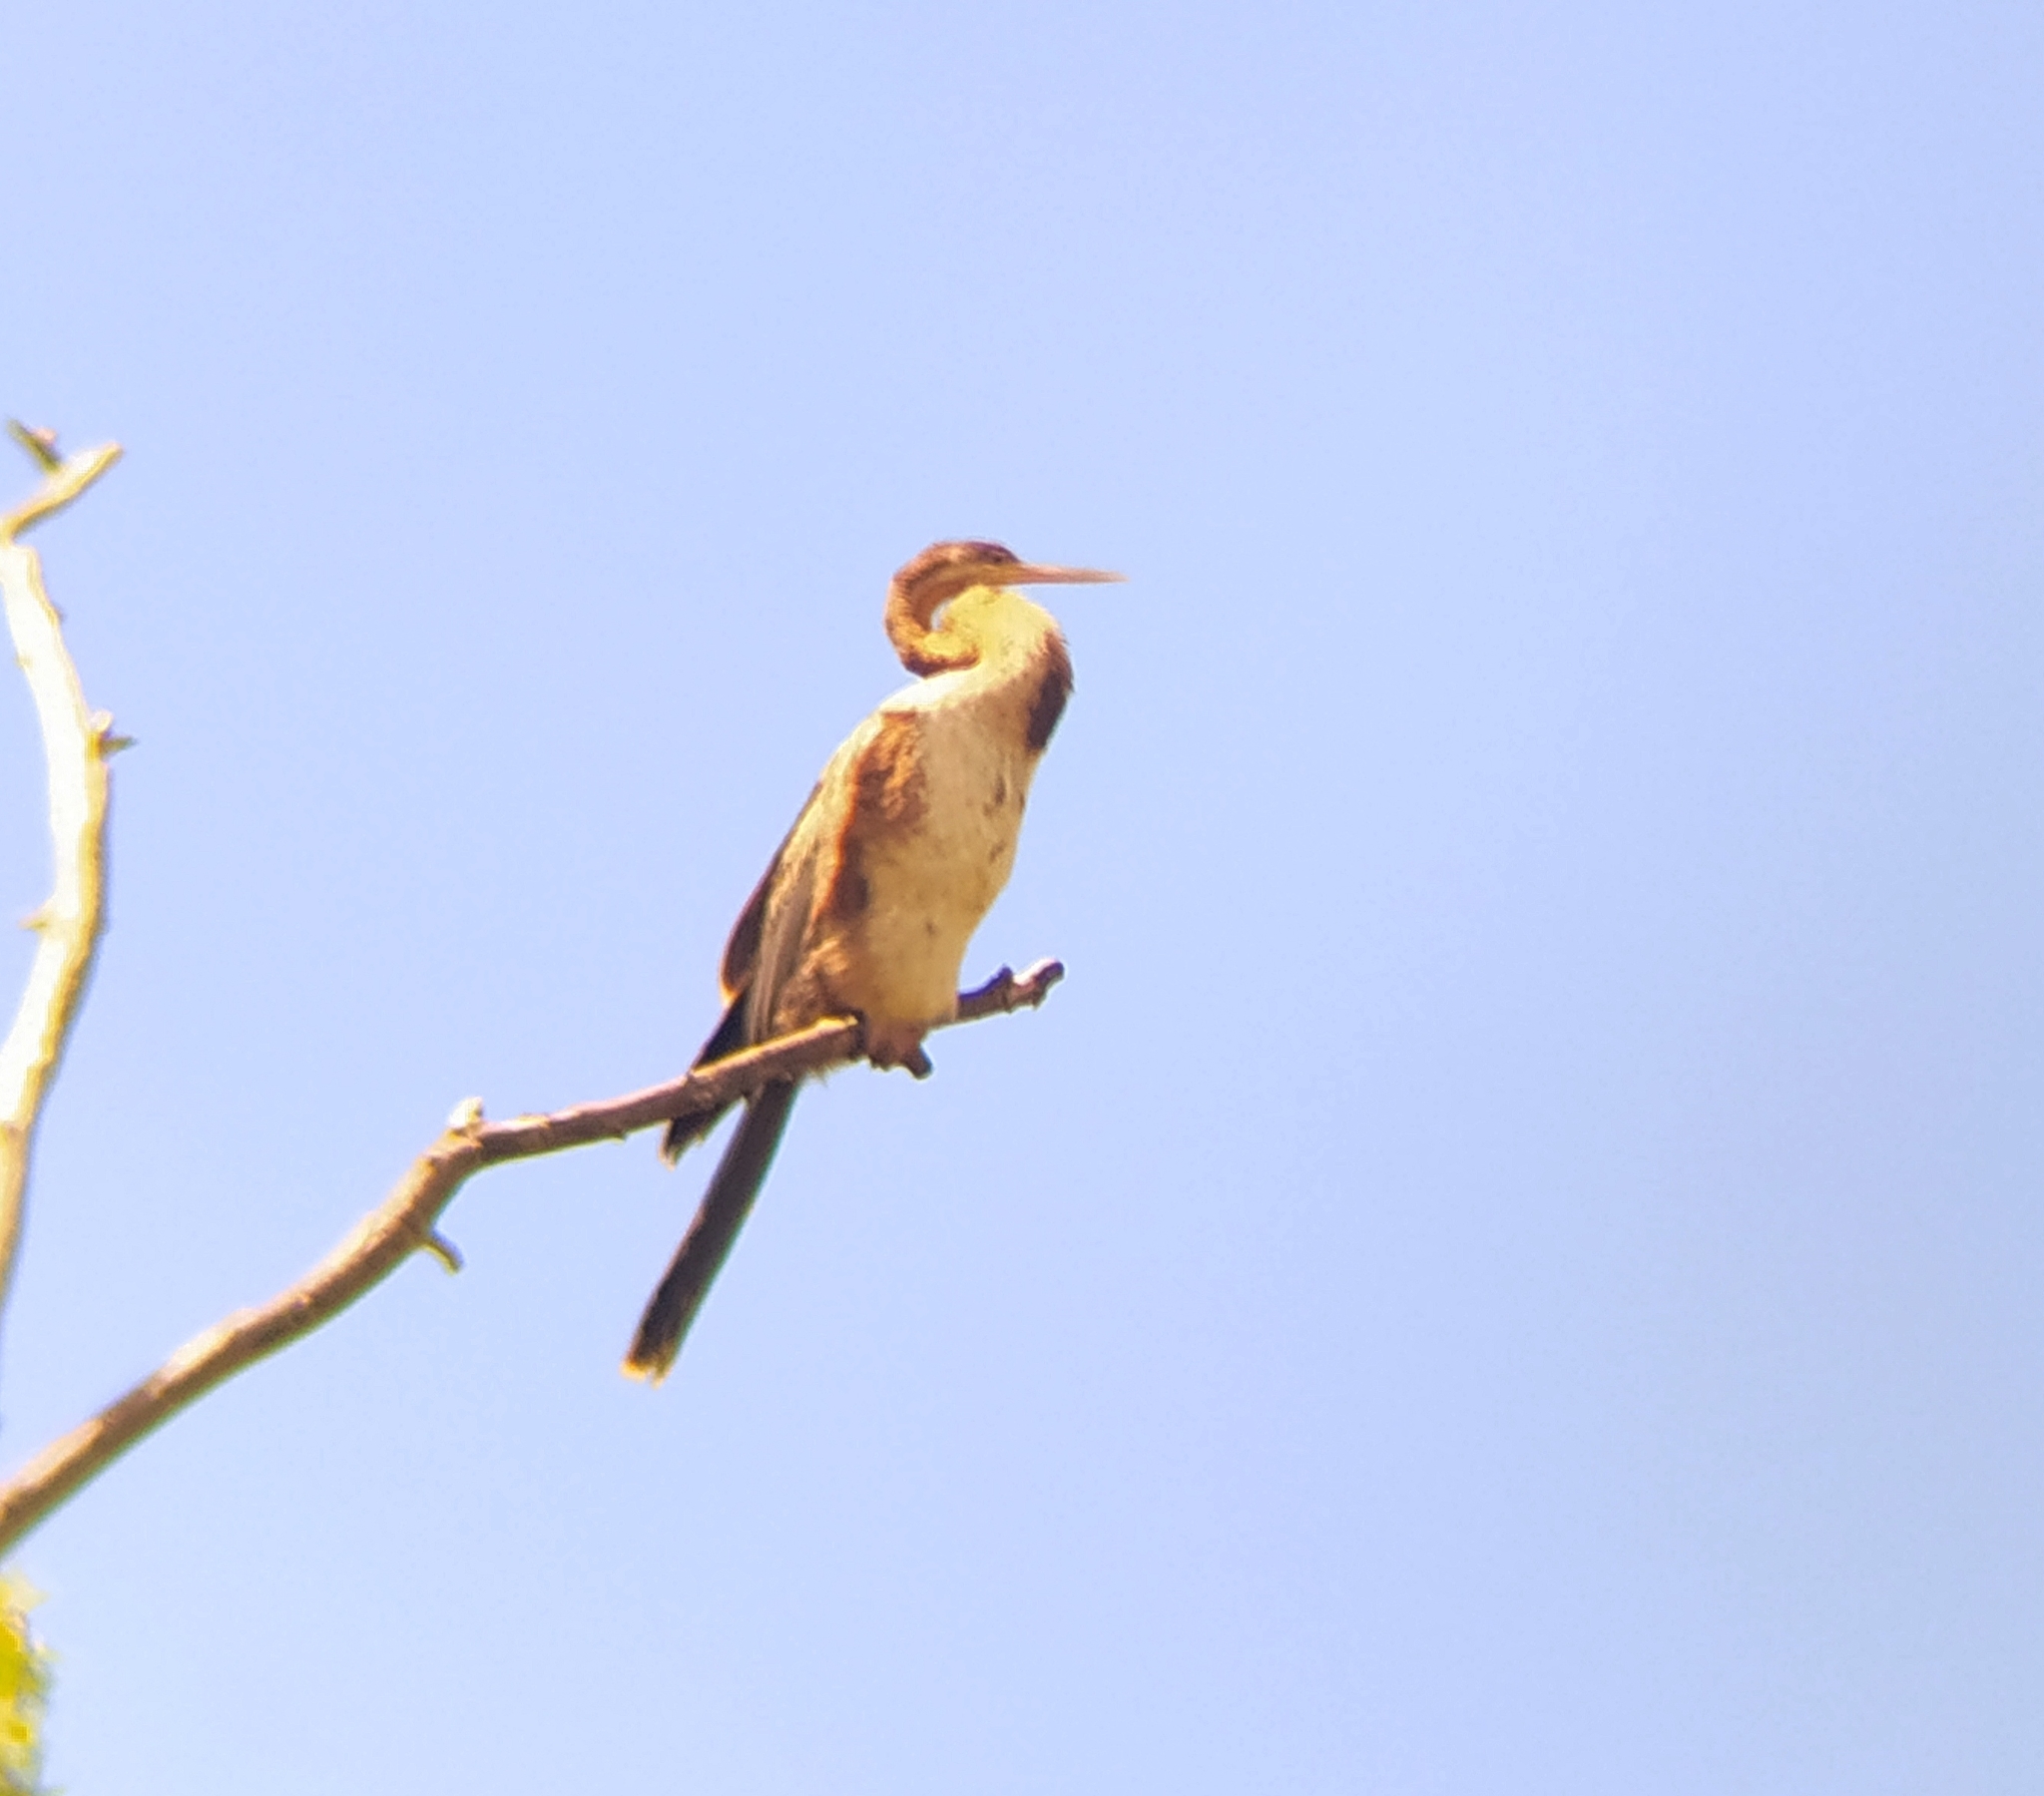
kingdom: Animalia
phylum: Chordata
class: Aves
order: Suliformes
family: Anhingidae
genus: Anhinga
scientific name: Anhinga rufa
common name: African darter
